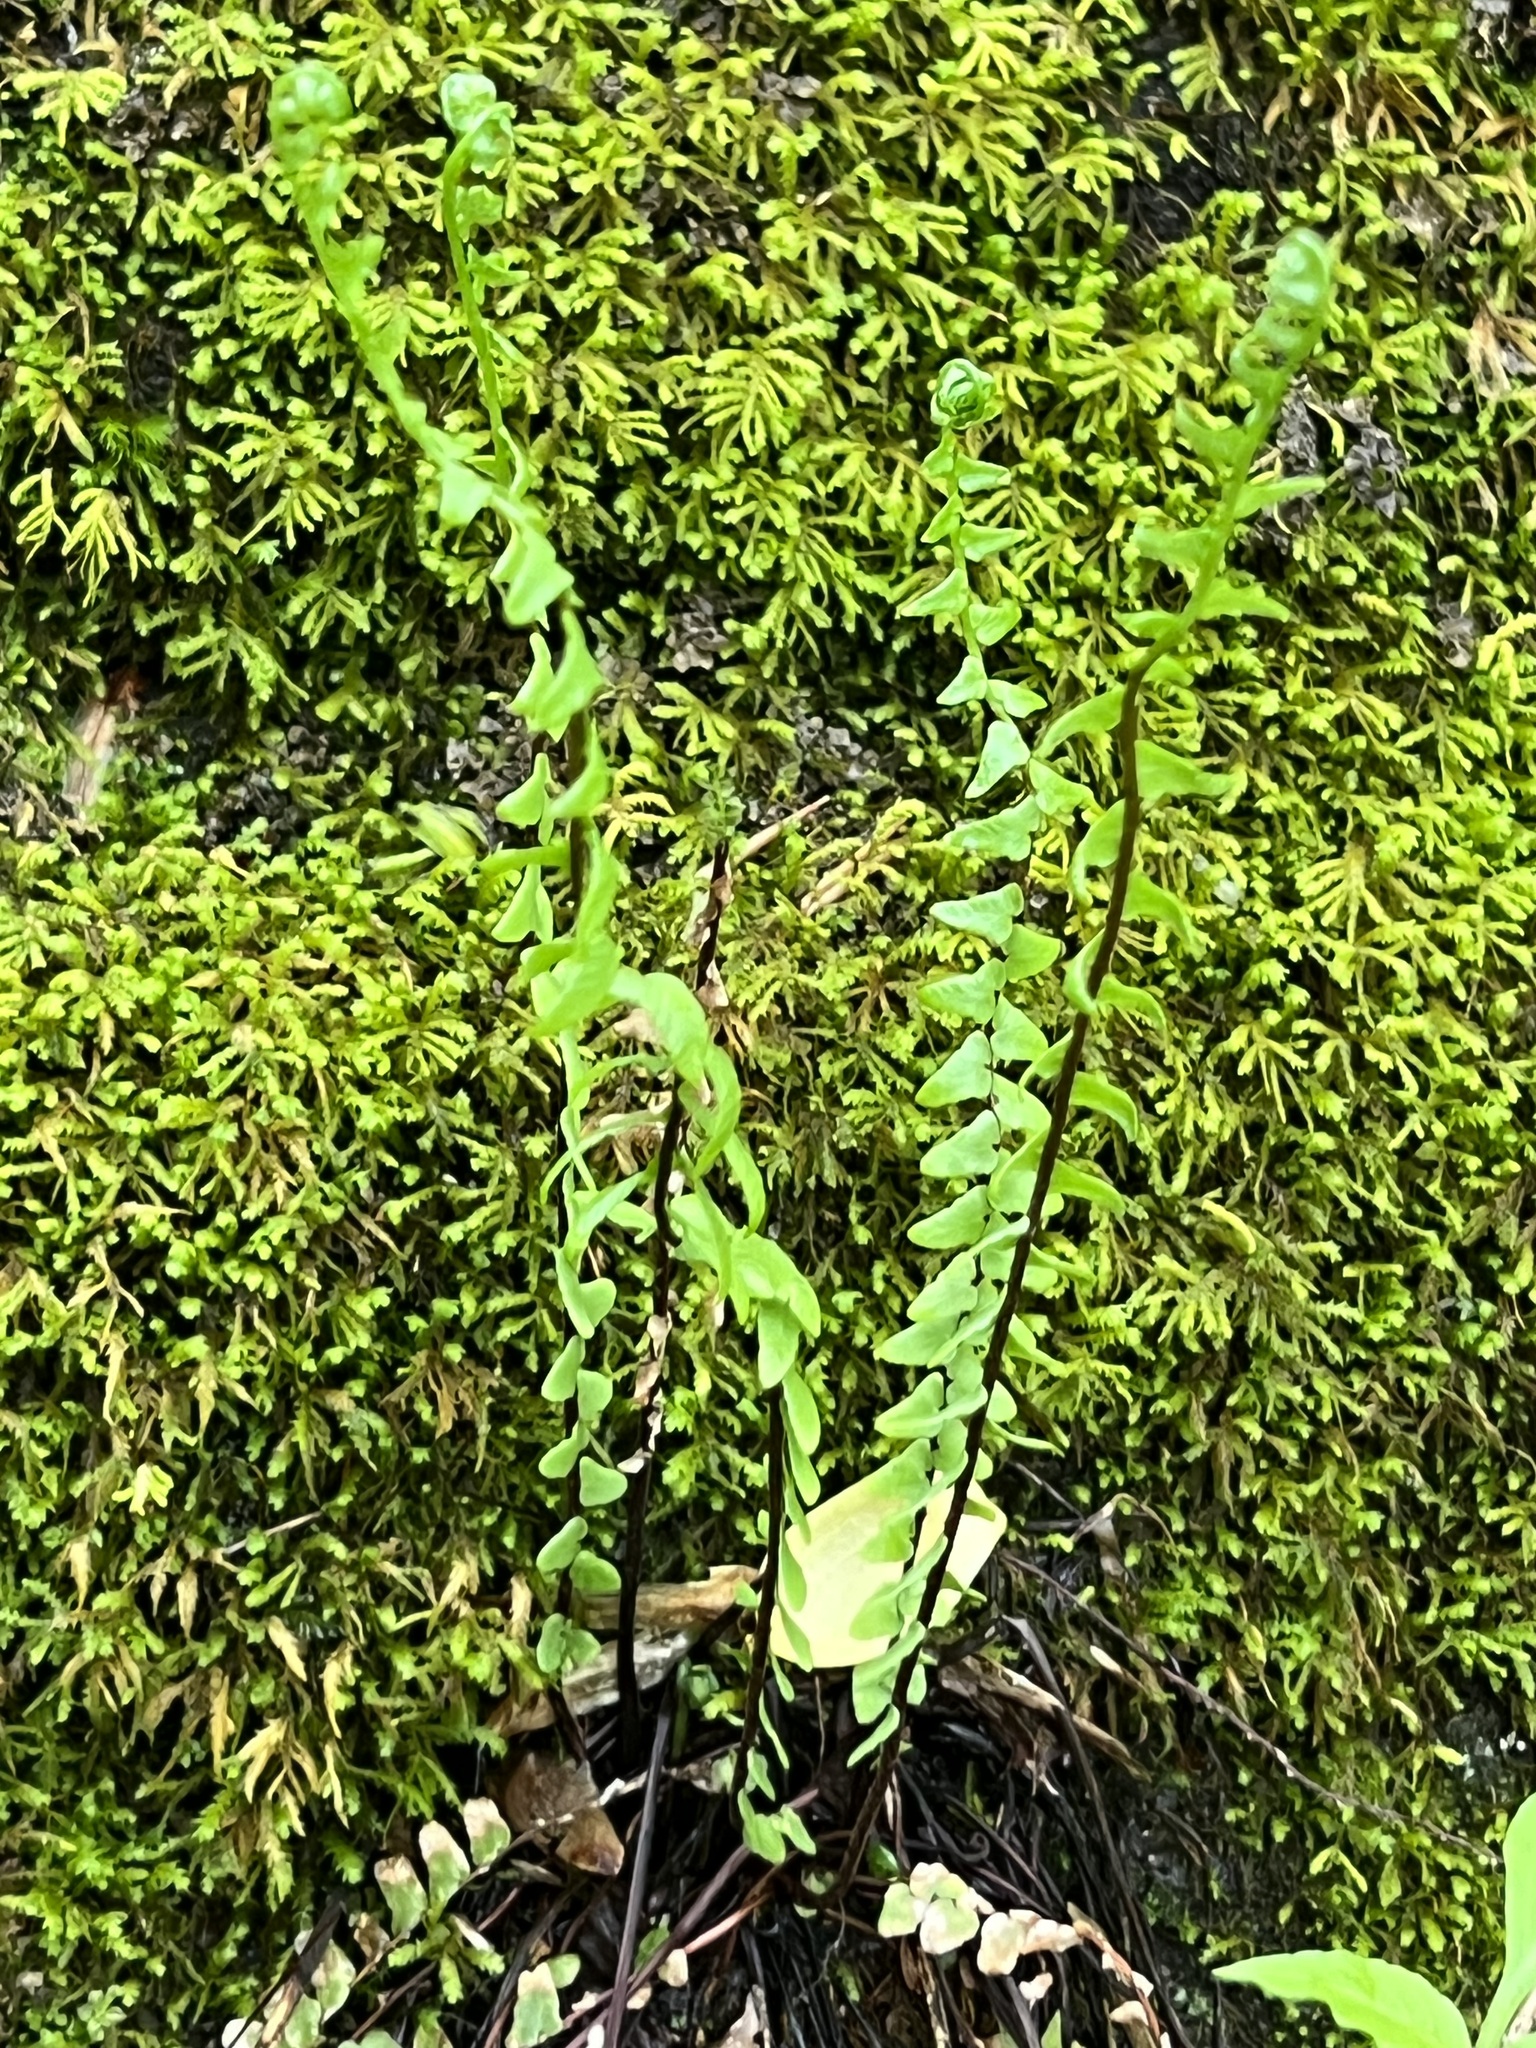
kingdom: Plantae
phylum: Tracheophyta
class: Polypodiopsida
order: Polypodiales
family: Aspleniaceae
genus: Asplenium
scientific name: Asplenium platyneuron
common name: Ebony spleenwort
